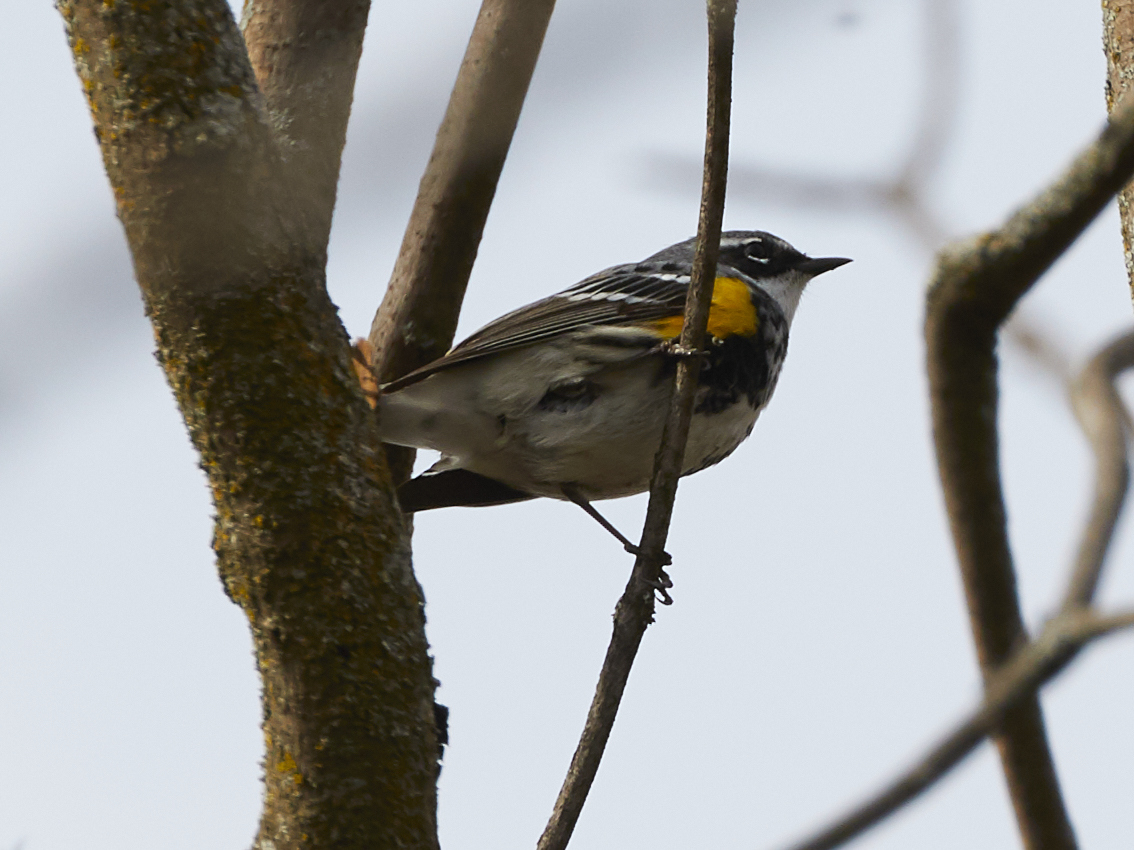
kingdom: Animalia
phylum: Chordata
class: Aves
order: Passeriformes
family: Parulidae
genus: Setophaga
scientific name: Setophaga coronata
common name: Myrtle warbler
